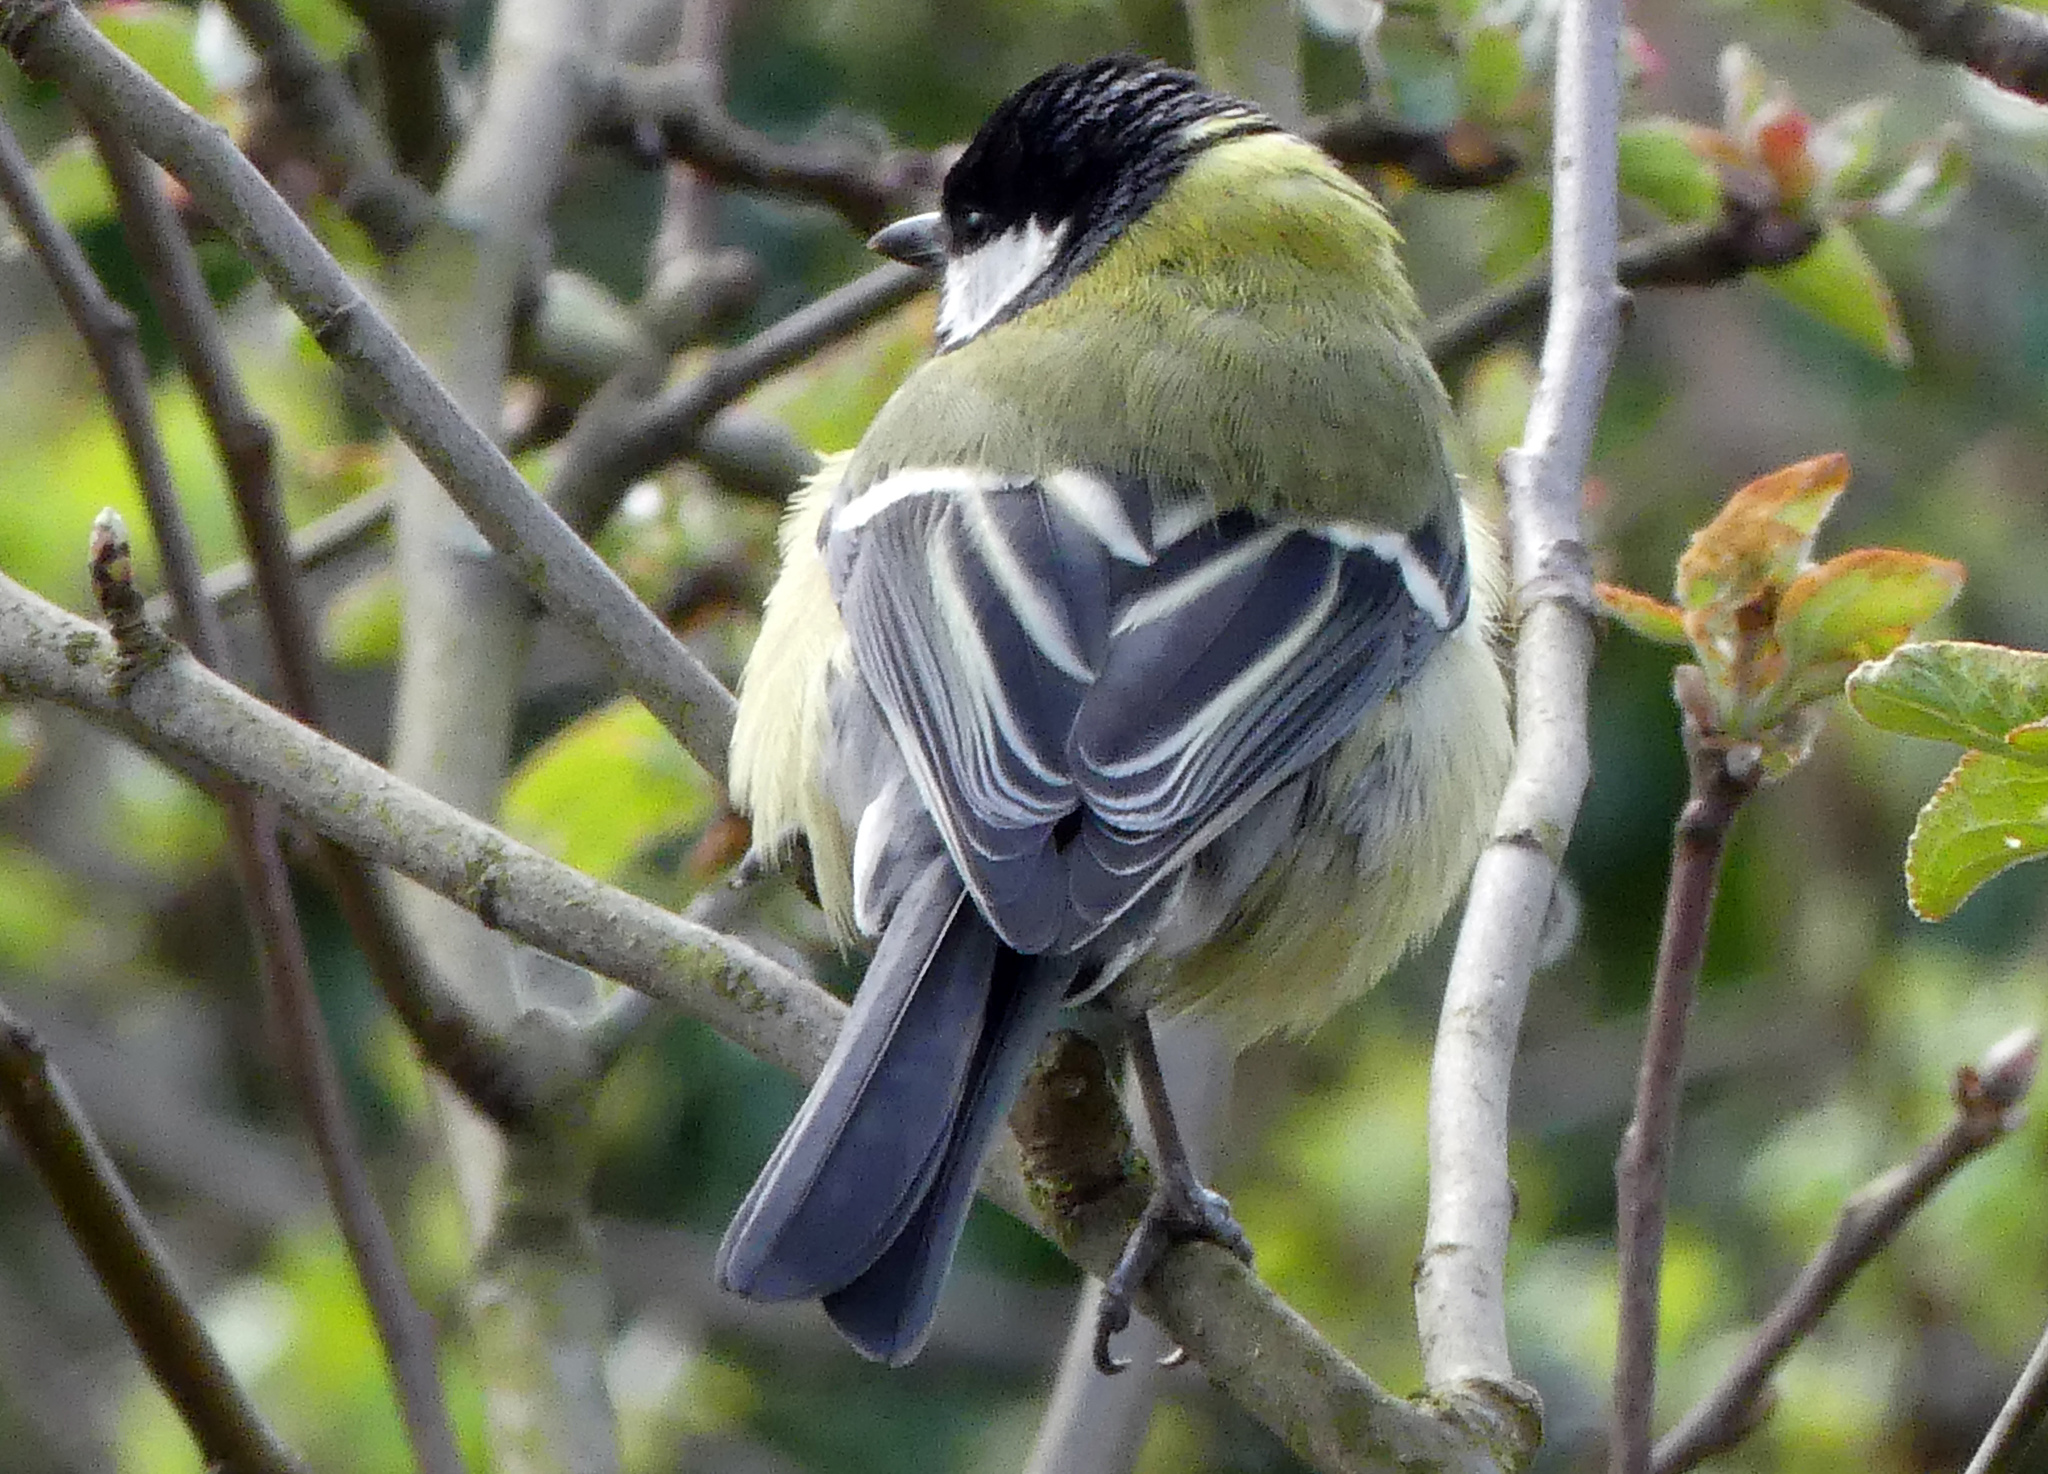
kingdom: Animalia
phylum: Chordata
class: Aves
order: Passeriformes
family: Paridae
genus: Parus
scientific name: Parus major
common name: Great tit
